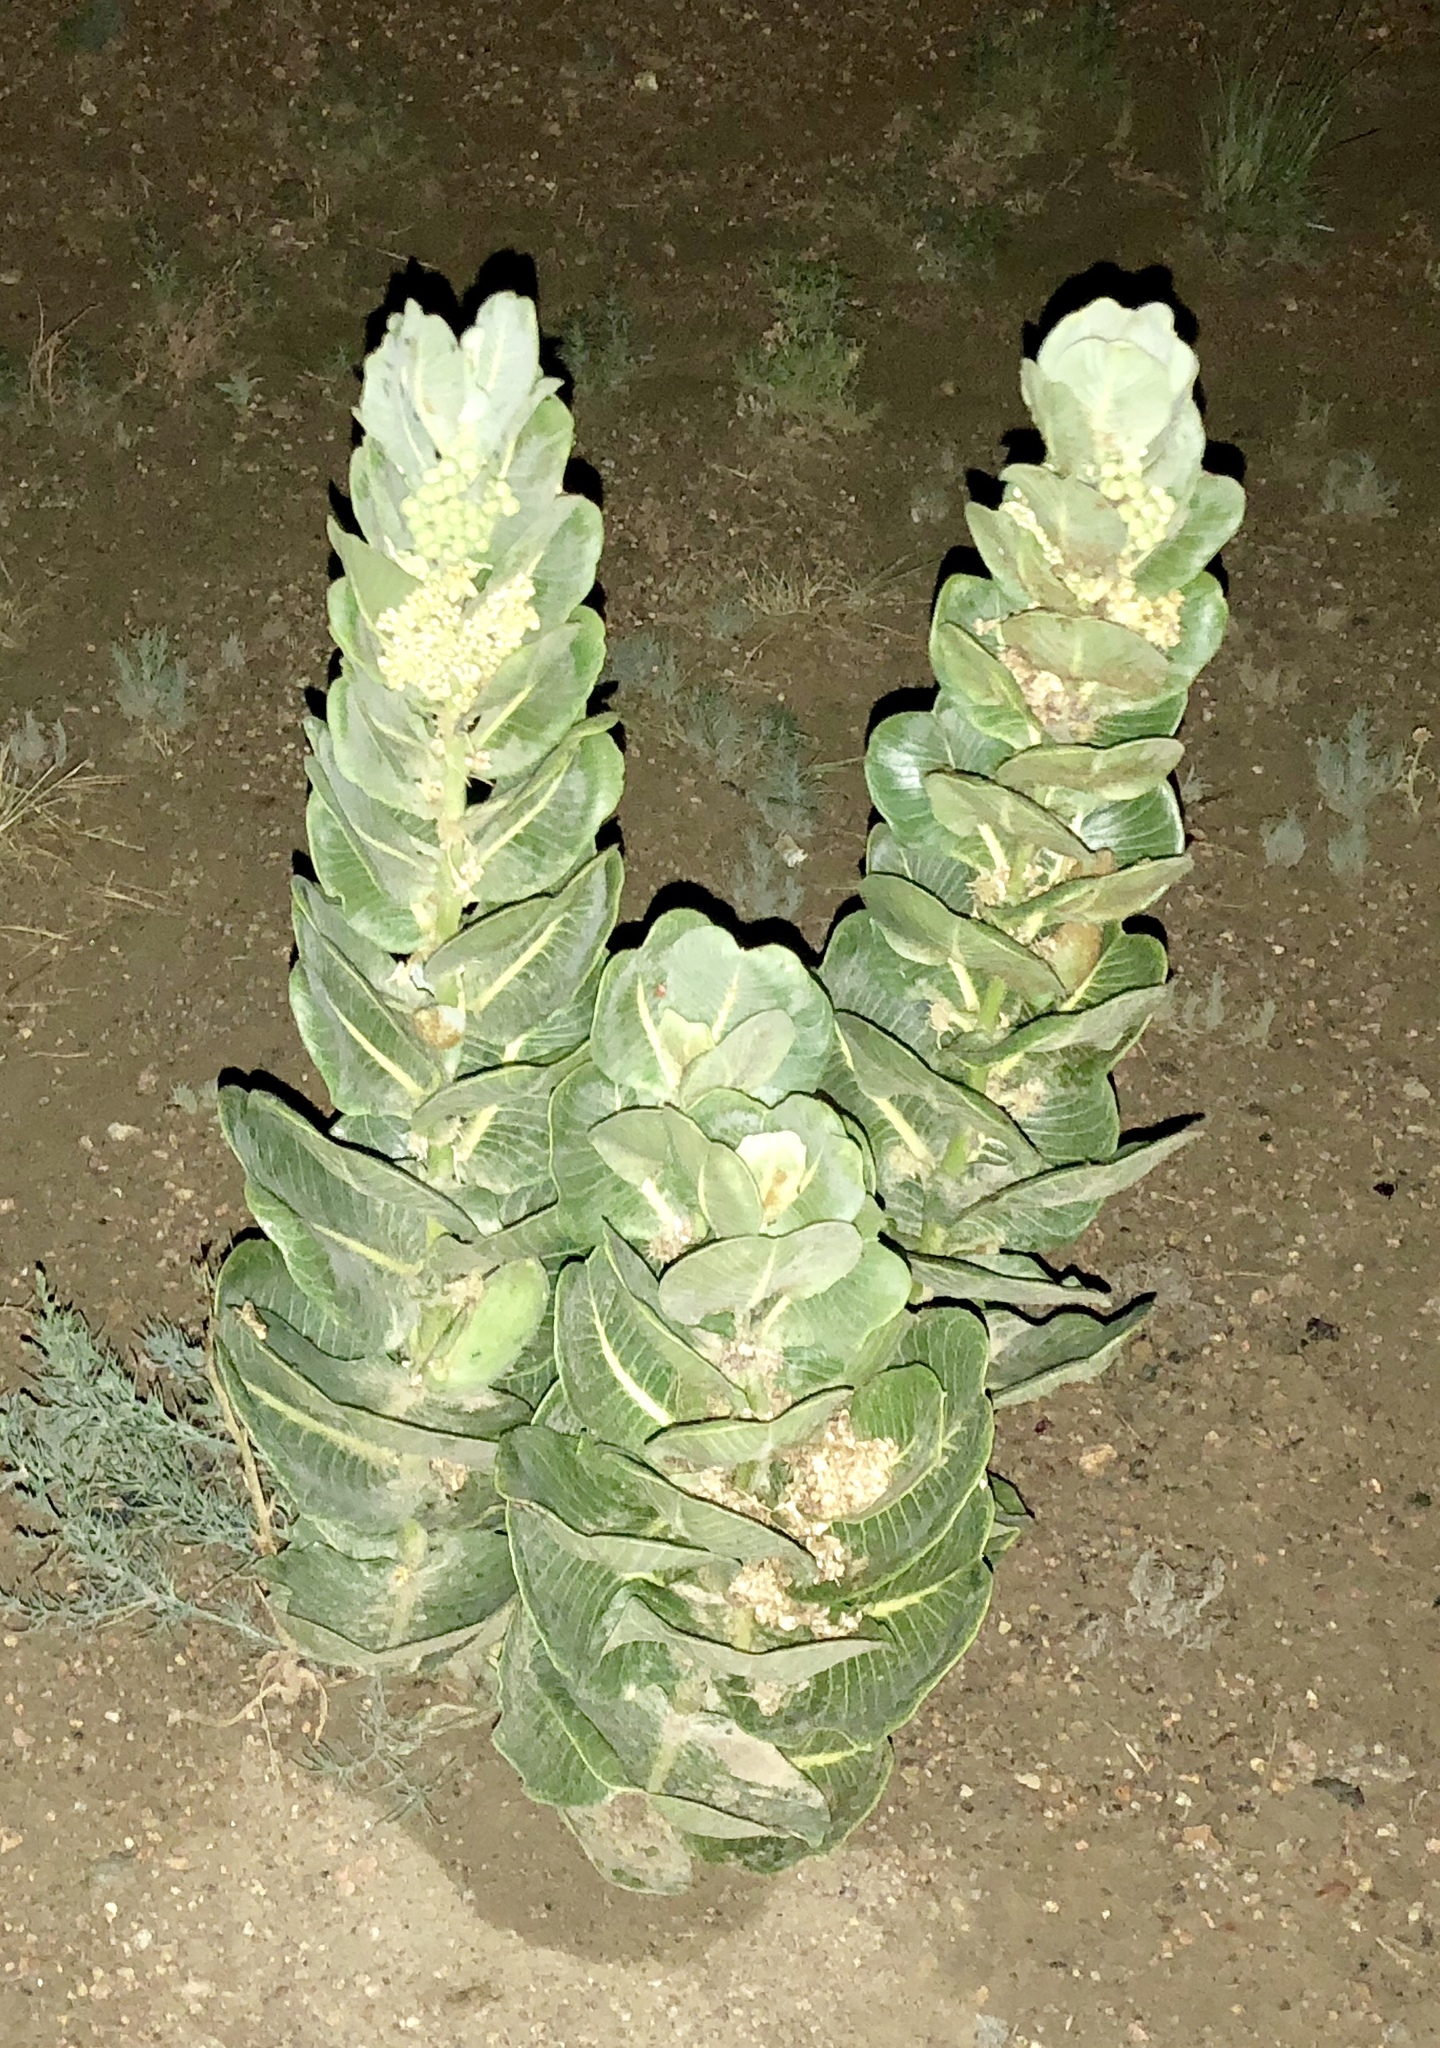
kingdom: Plantae
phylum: Tracheophyta
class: Magnoliopsida
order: Gentianales
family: Apocynaceae
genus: Asclepias
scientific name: Asclepias latifolia
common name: Broadleaf milkweed
